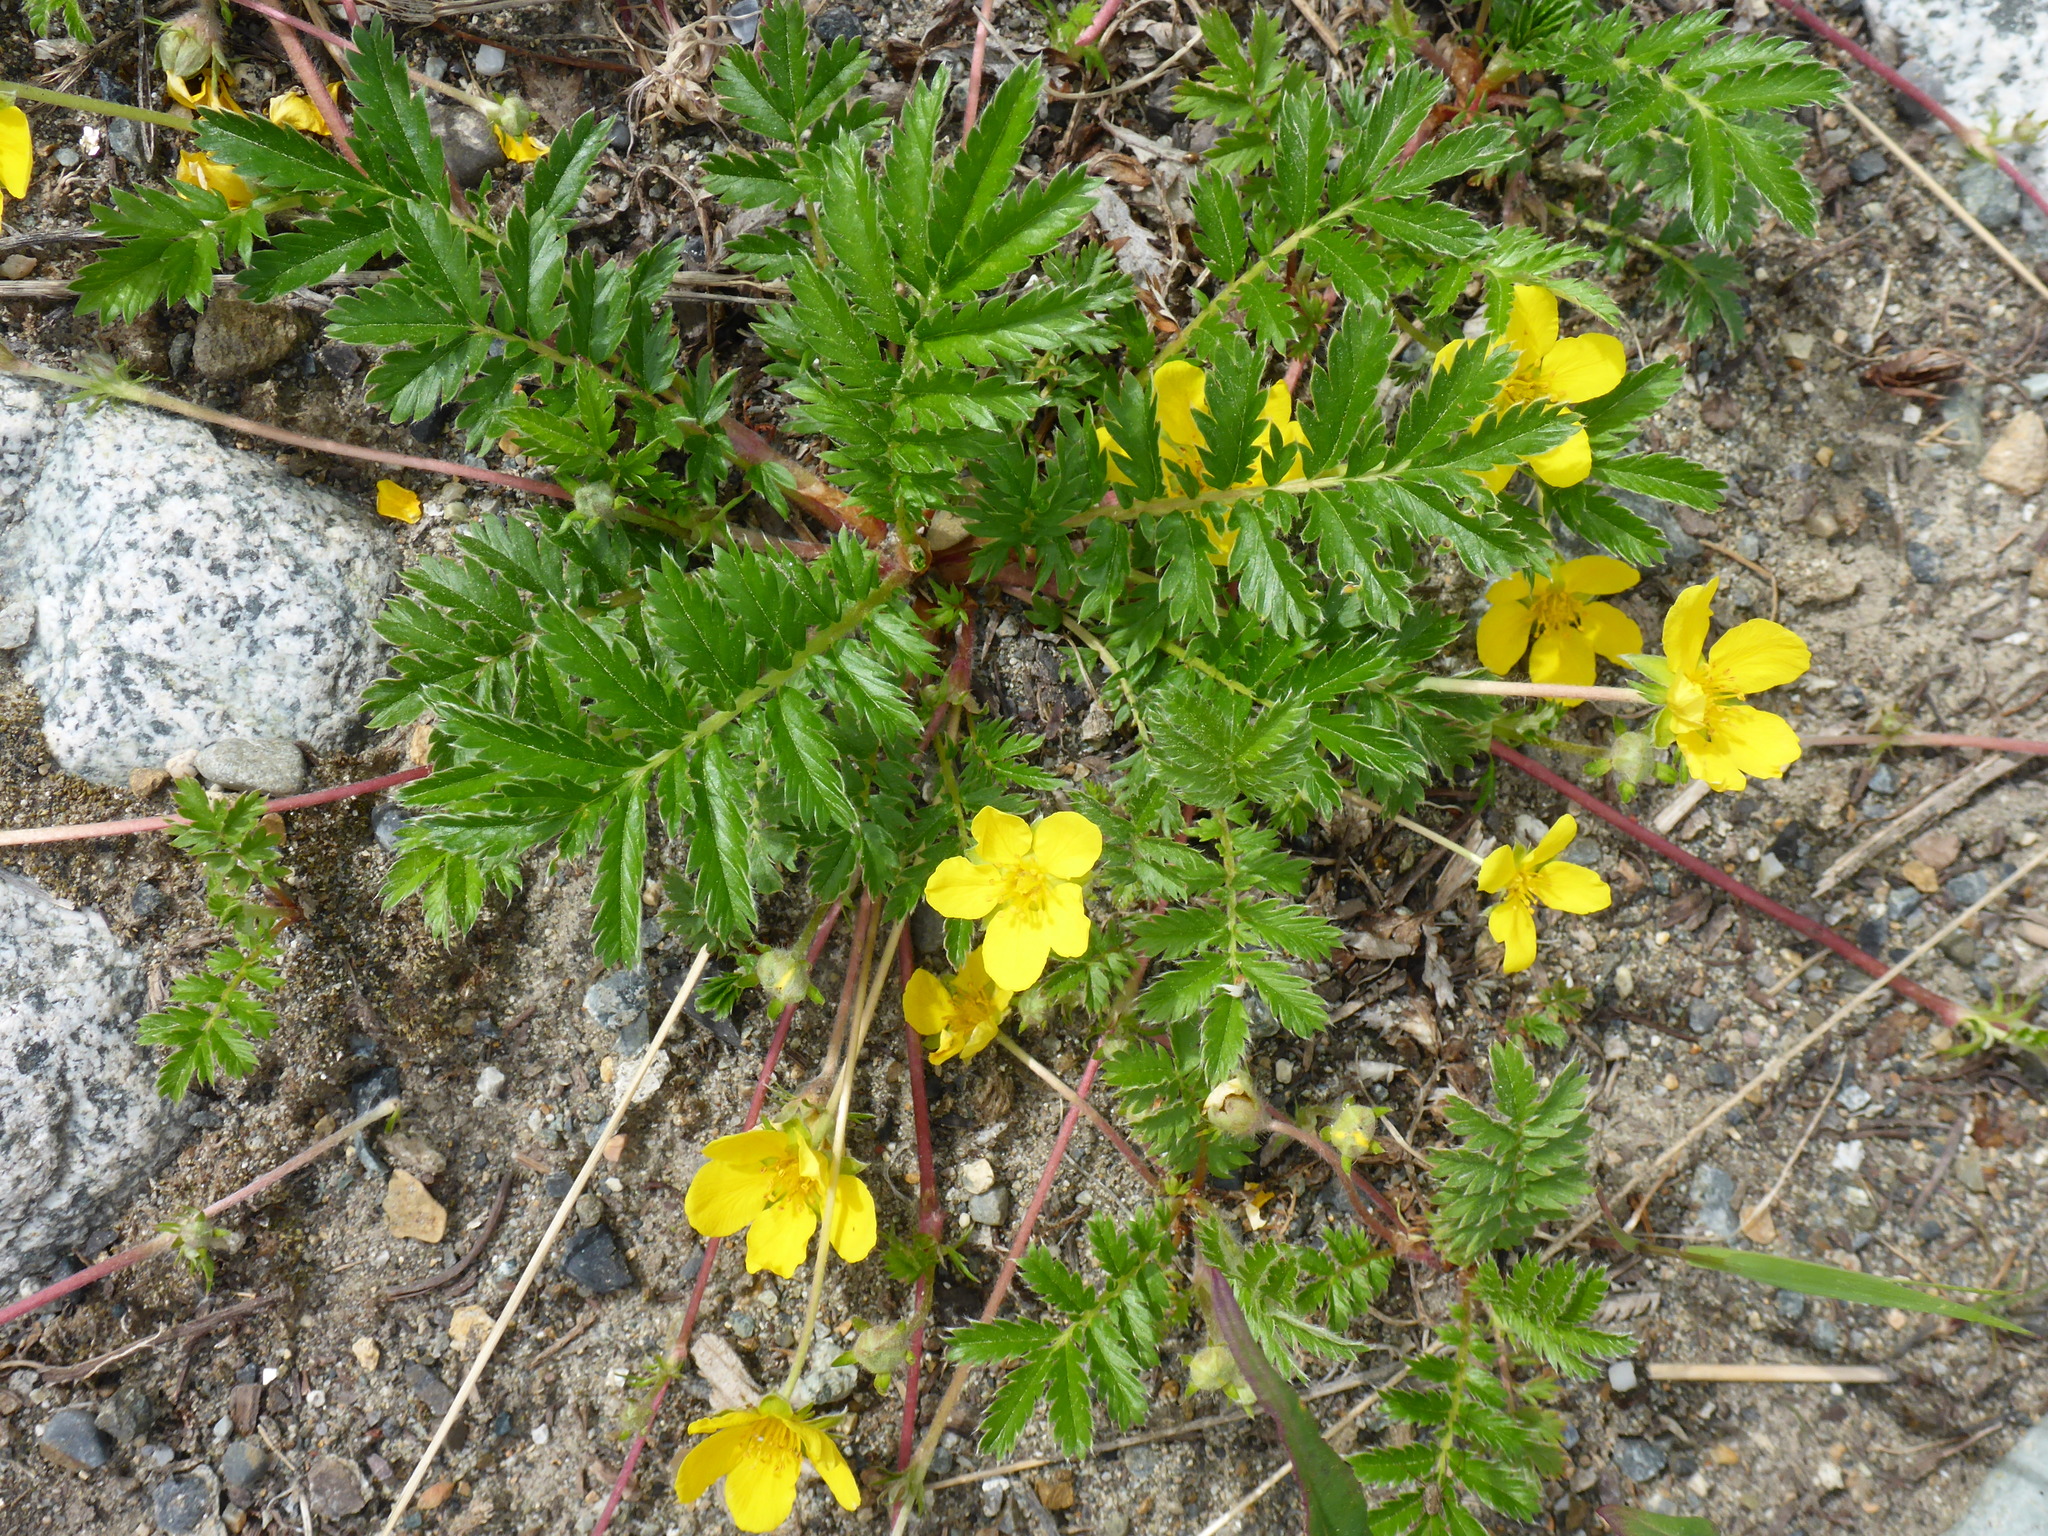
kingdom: Plantae
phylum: Tracheophyta
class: Magnoliopsida
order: Rosales
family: Rosaceae
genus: Argentina
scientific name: Argentina anserina
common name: Common silverweed
